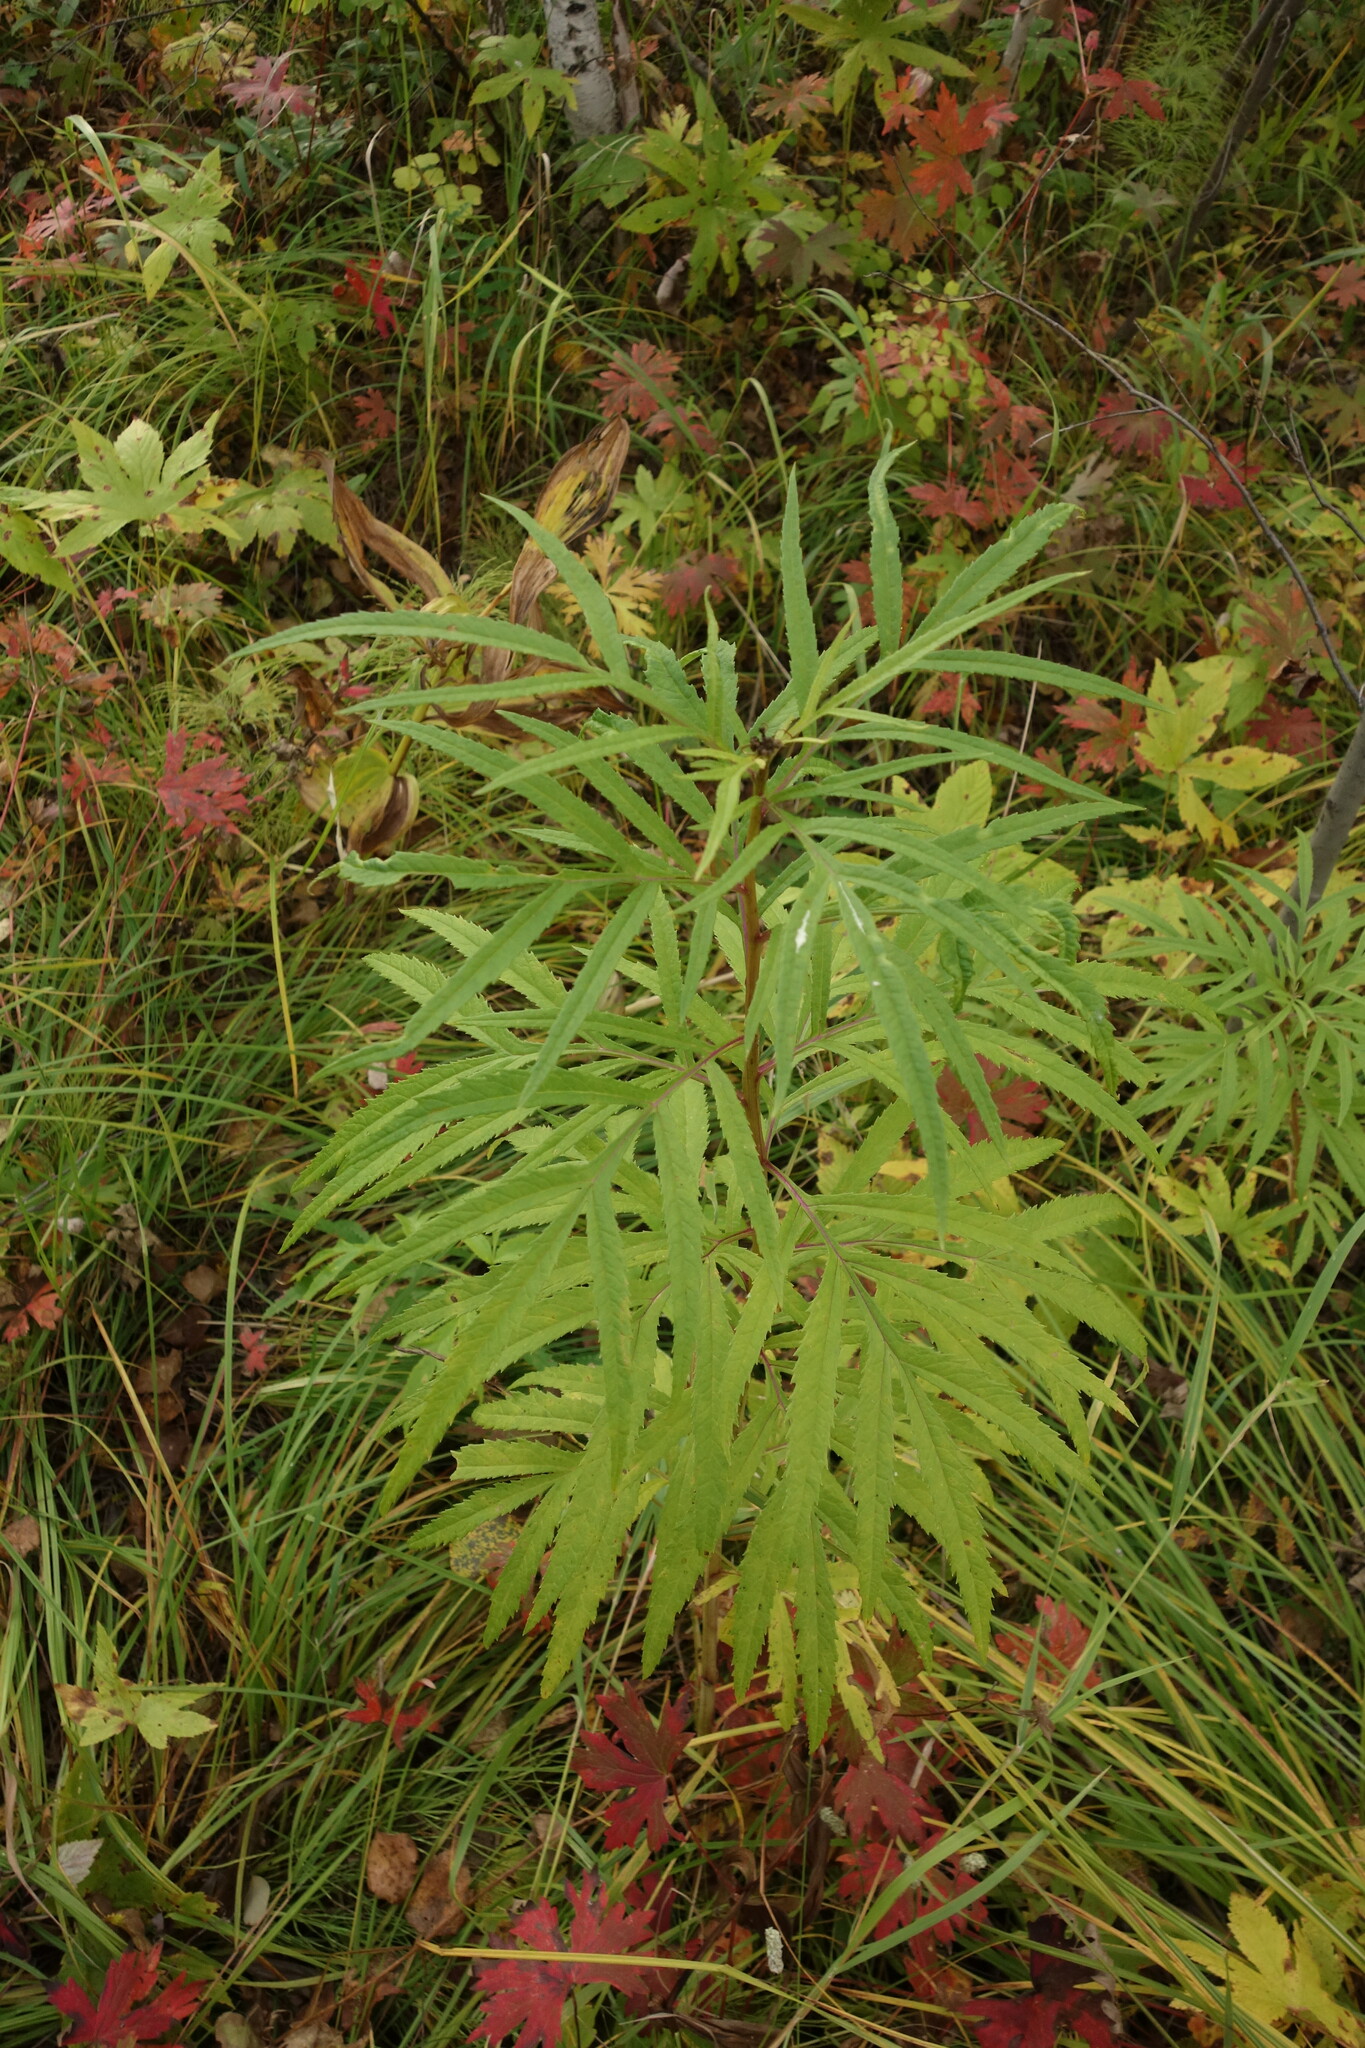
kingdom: Plantae
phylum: Tracheophyta
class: Magnoliopsida
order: Asterales
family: Asteraceae
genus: Jacobaea
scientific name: Jacobaea cannabifolia
